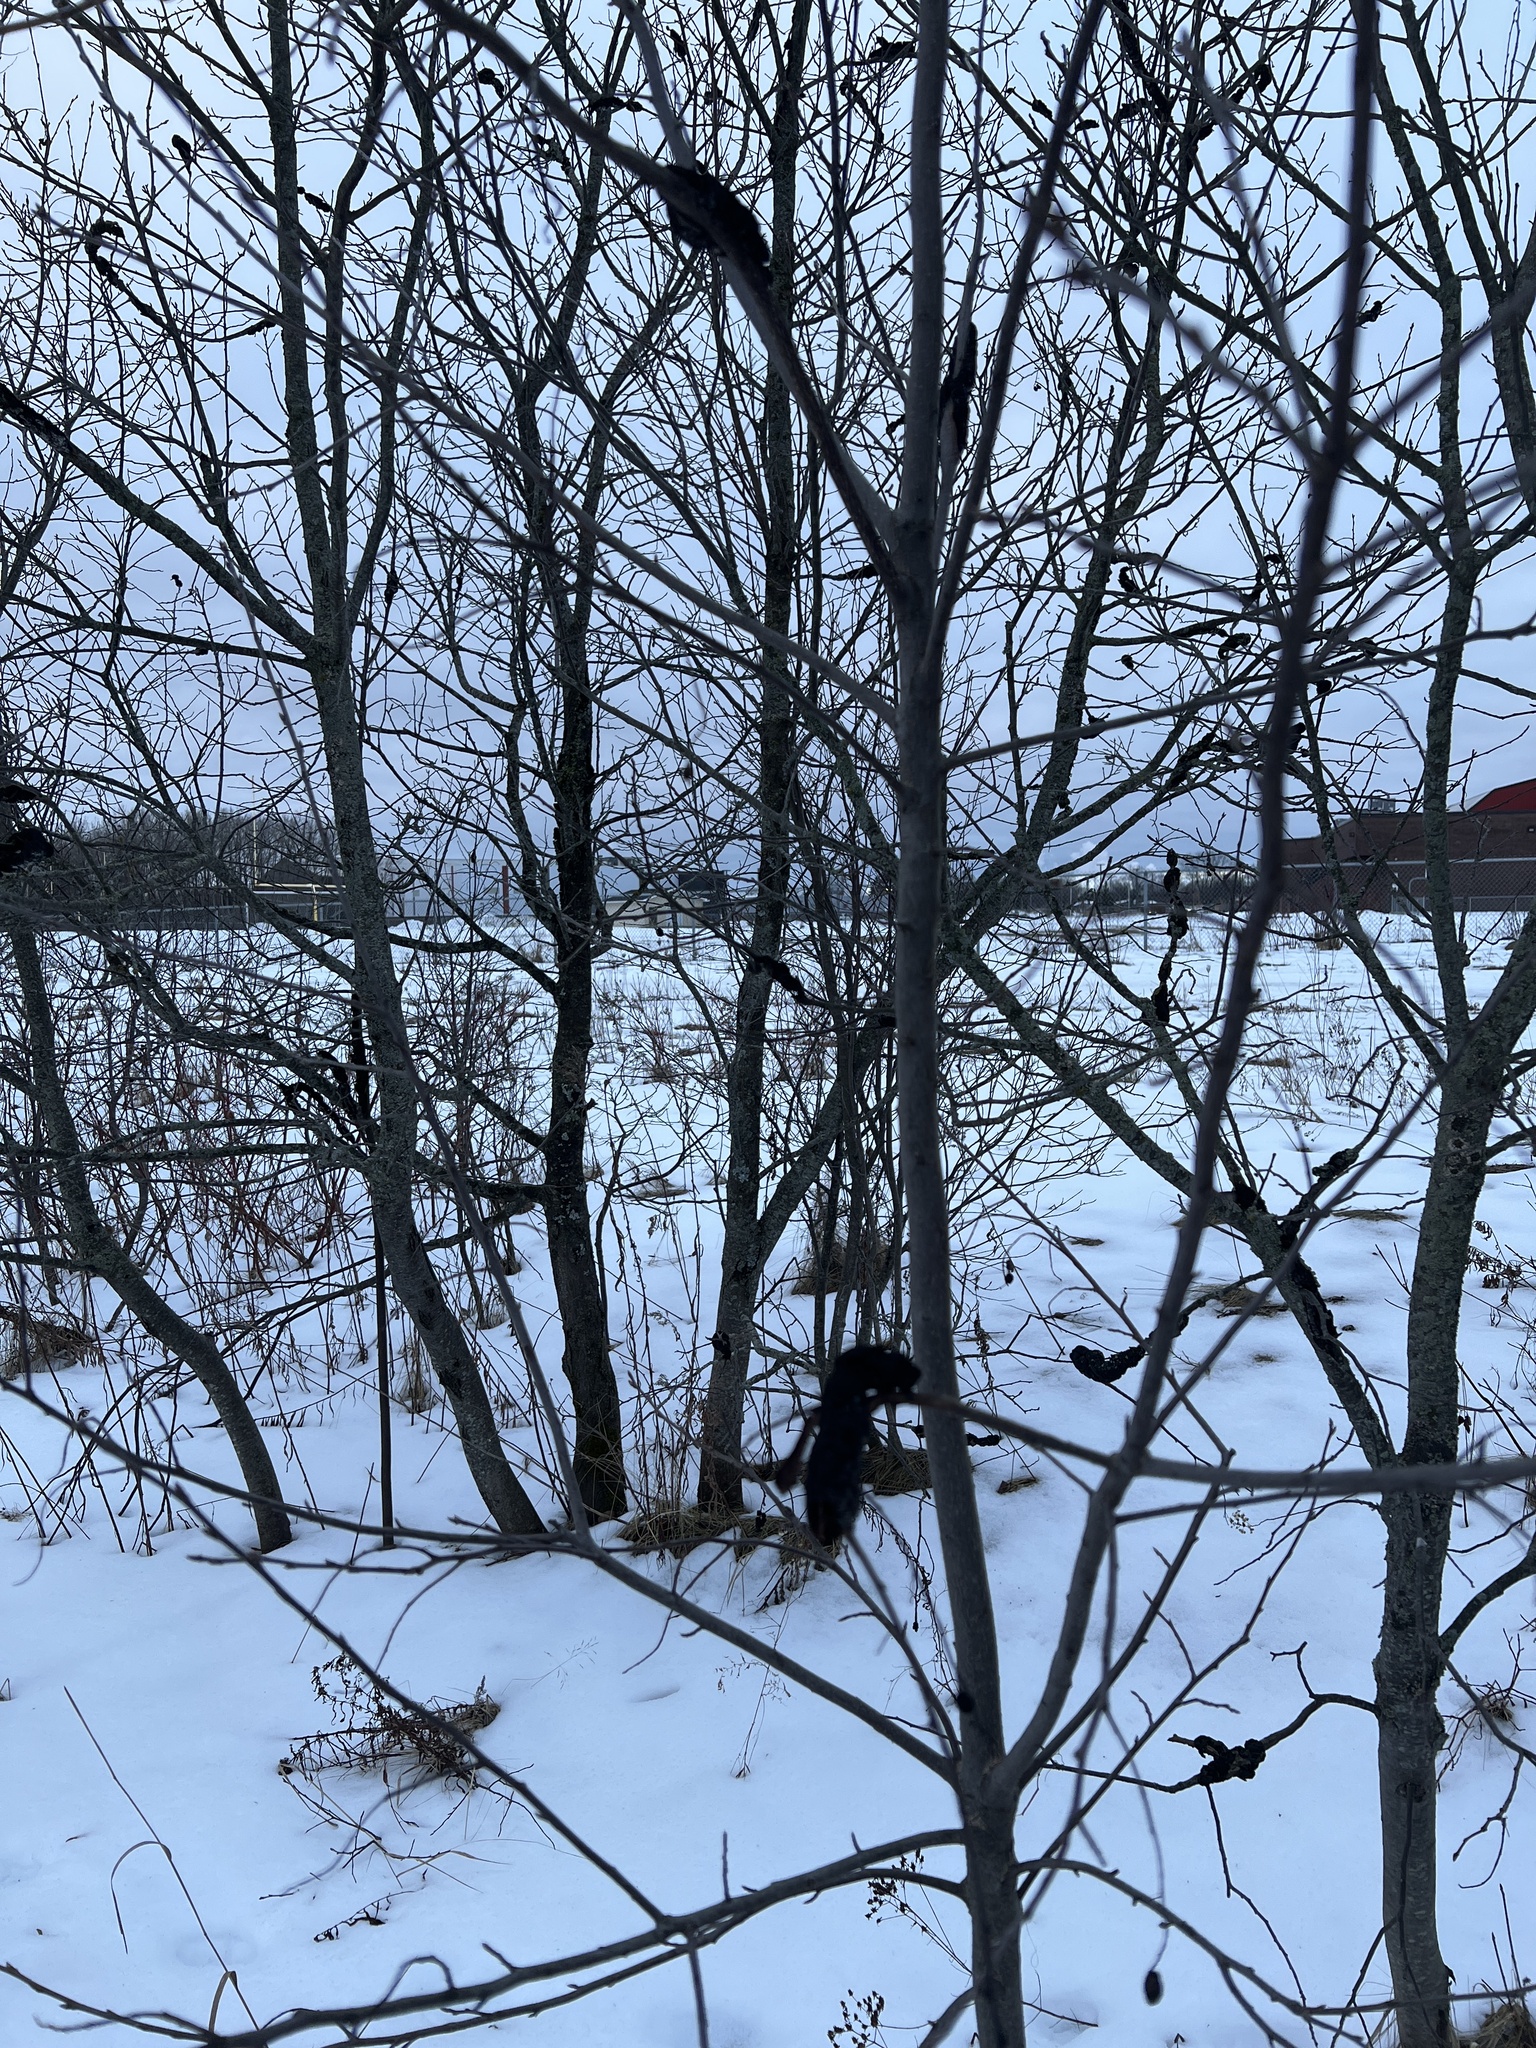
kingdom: Fungi
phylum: Ascomycota
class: Dothideomycetes
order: Venturiales
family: Venturiaceae
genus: Apiosporina
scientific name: Apiosporina morbosa
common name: Black knot
